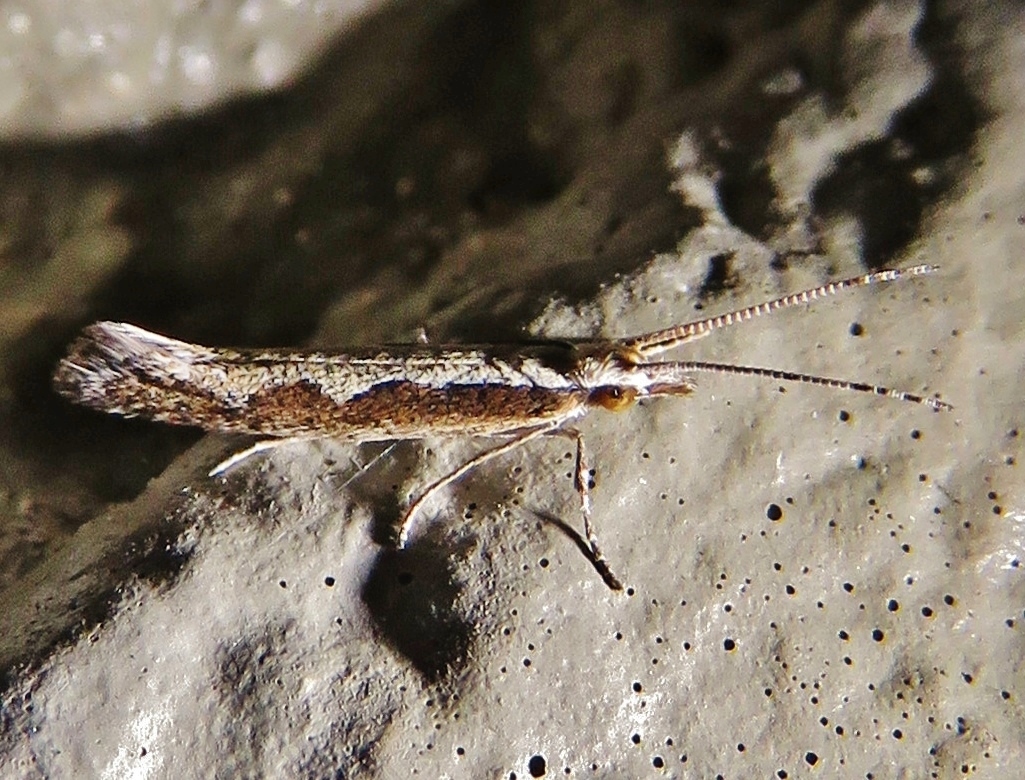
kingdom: Animalia
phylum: Arthropoda
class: Insecta
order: Lepidoptera
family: Plutellidae
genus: Plutella
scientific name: Plutella xylostella
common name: Diamond-back moth
